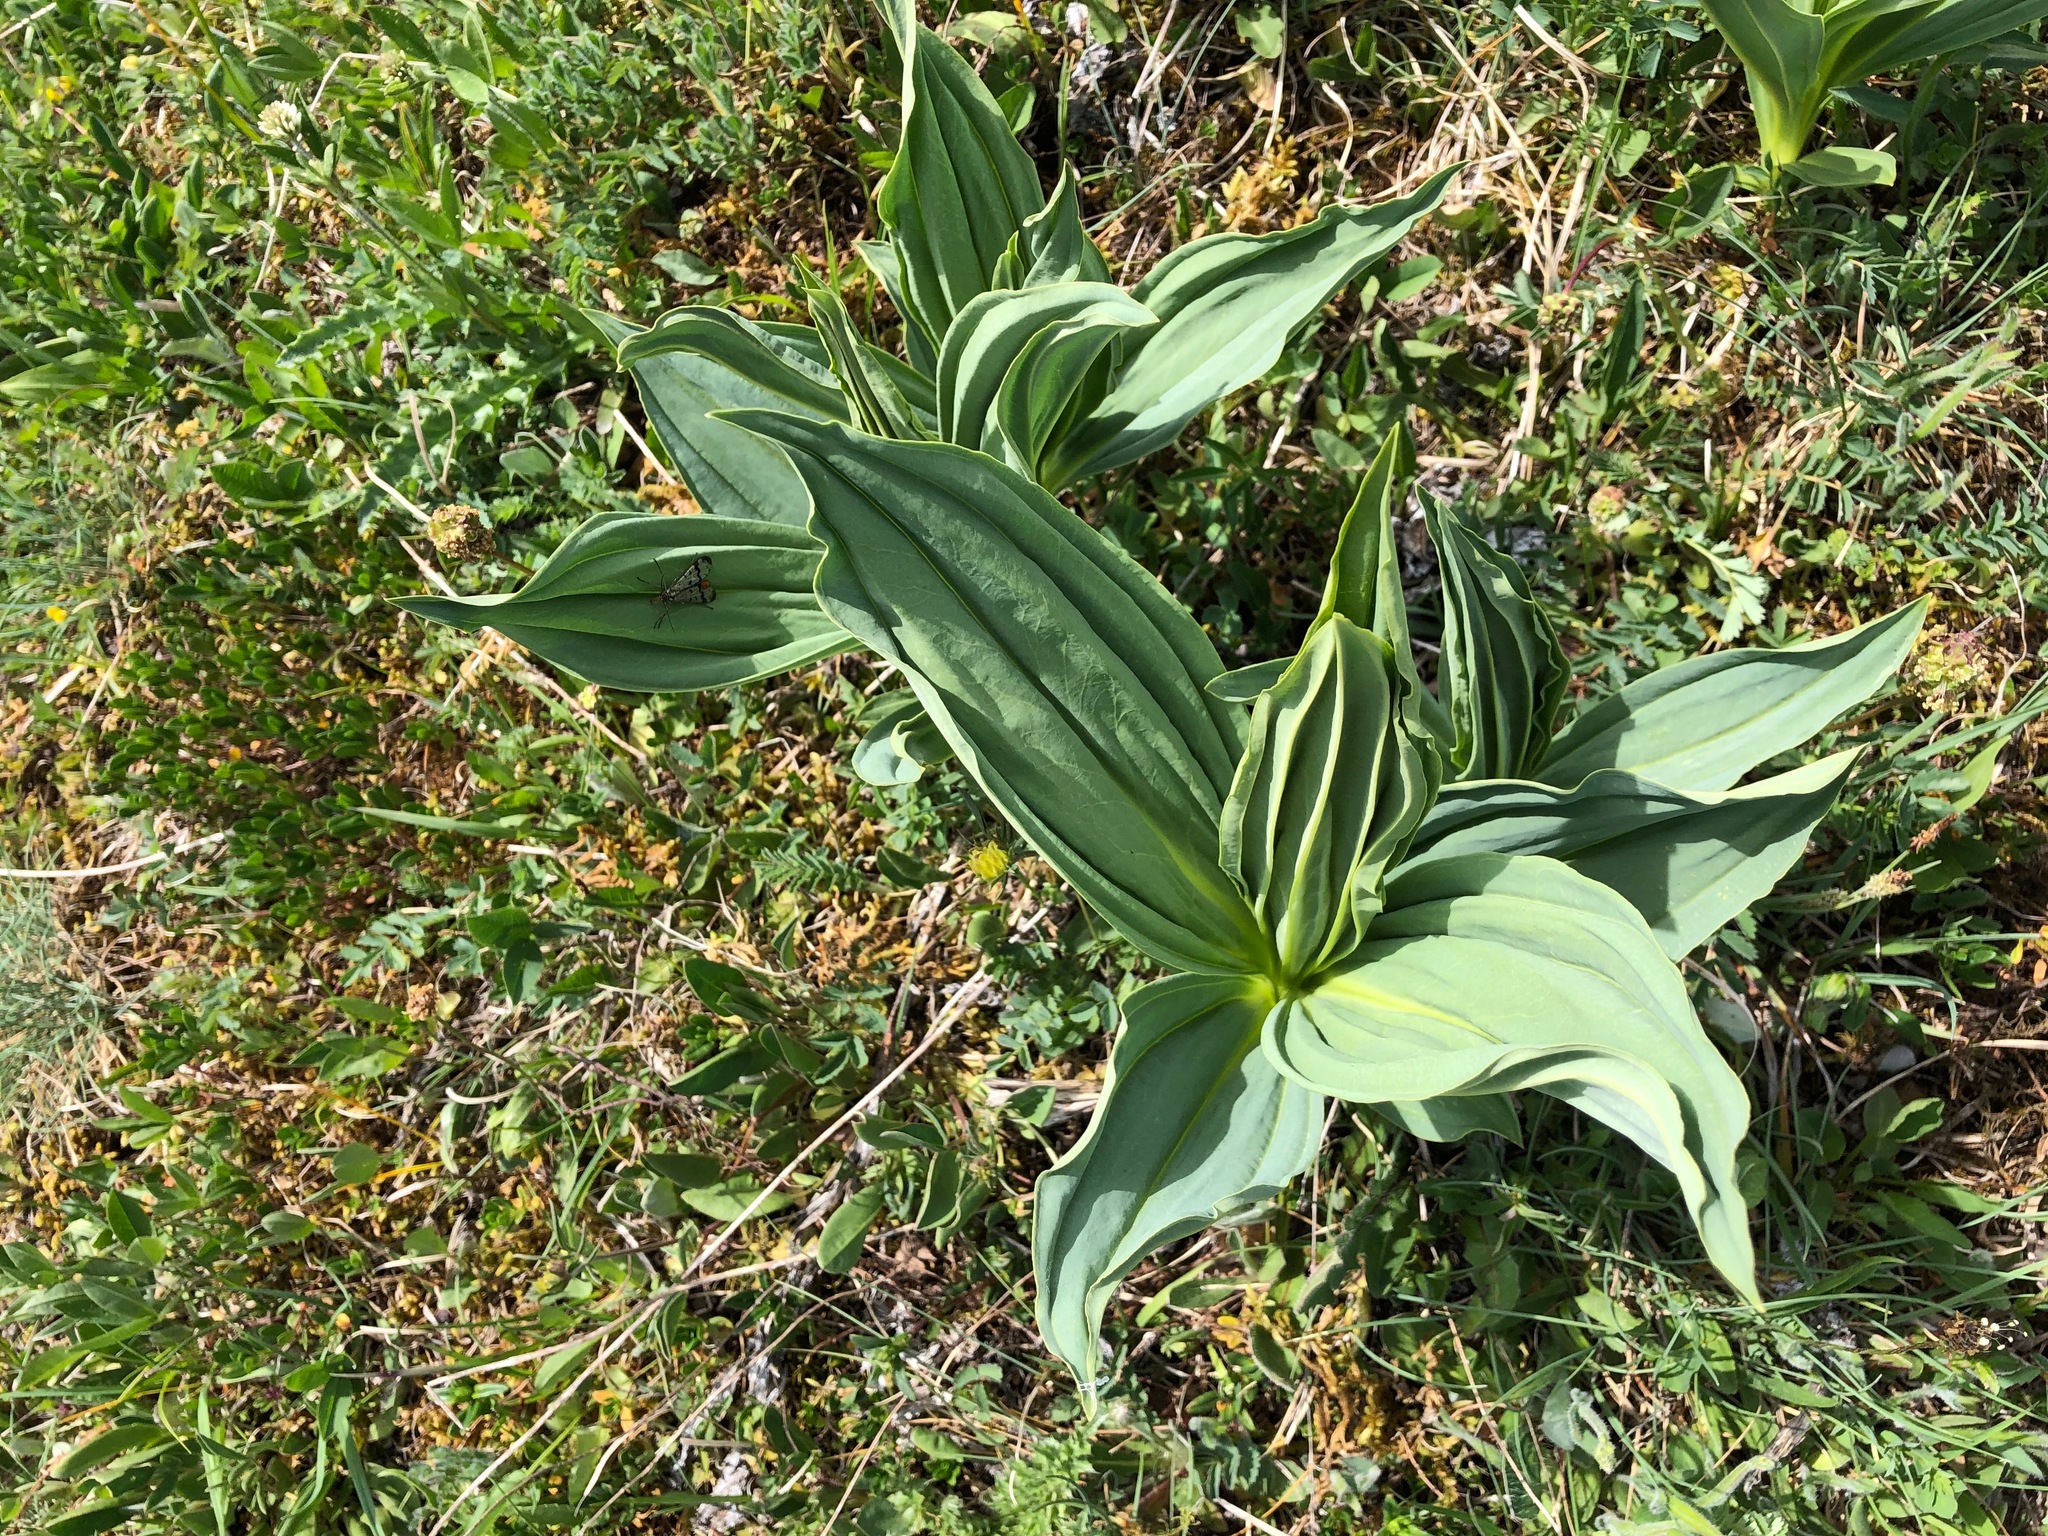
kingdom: Plantae
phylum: Tracheophyta
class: Magnoliopsida
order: Gentianales
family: Gentianaceae
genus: Gentiana
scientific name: Gentiana lutea
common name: Great yellow gentian
